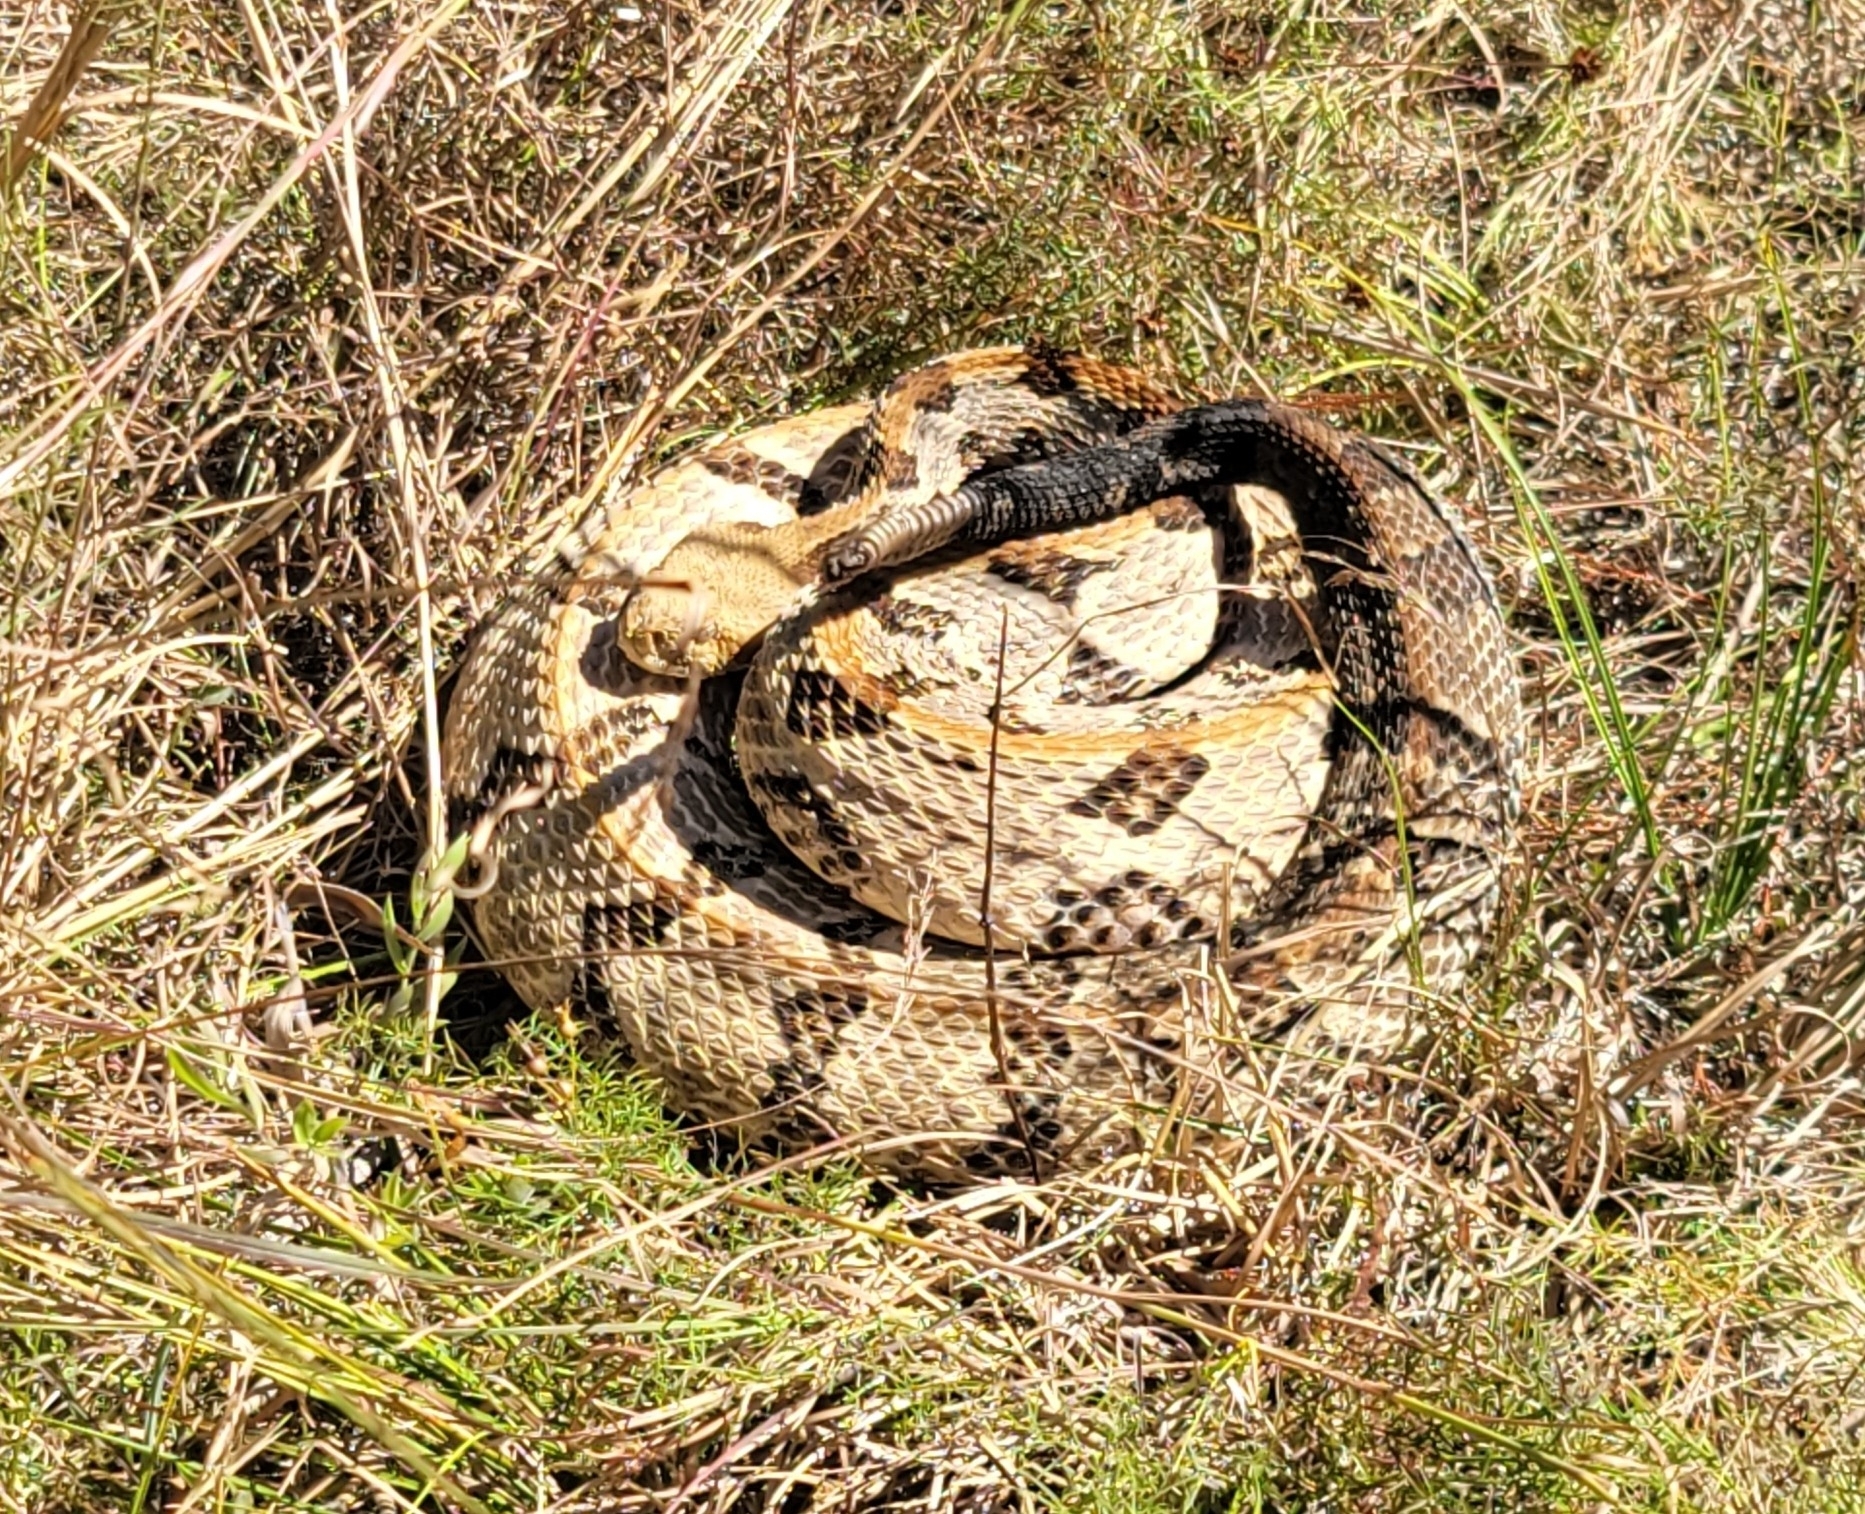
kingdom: Animalia
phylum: Chordata
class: Squamata
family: Viperidae
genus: Crotalus
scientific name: Crotalus horridus
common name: Timber rattlesnake
